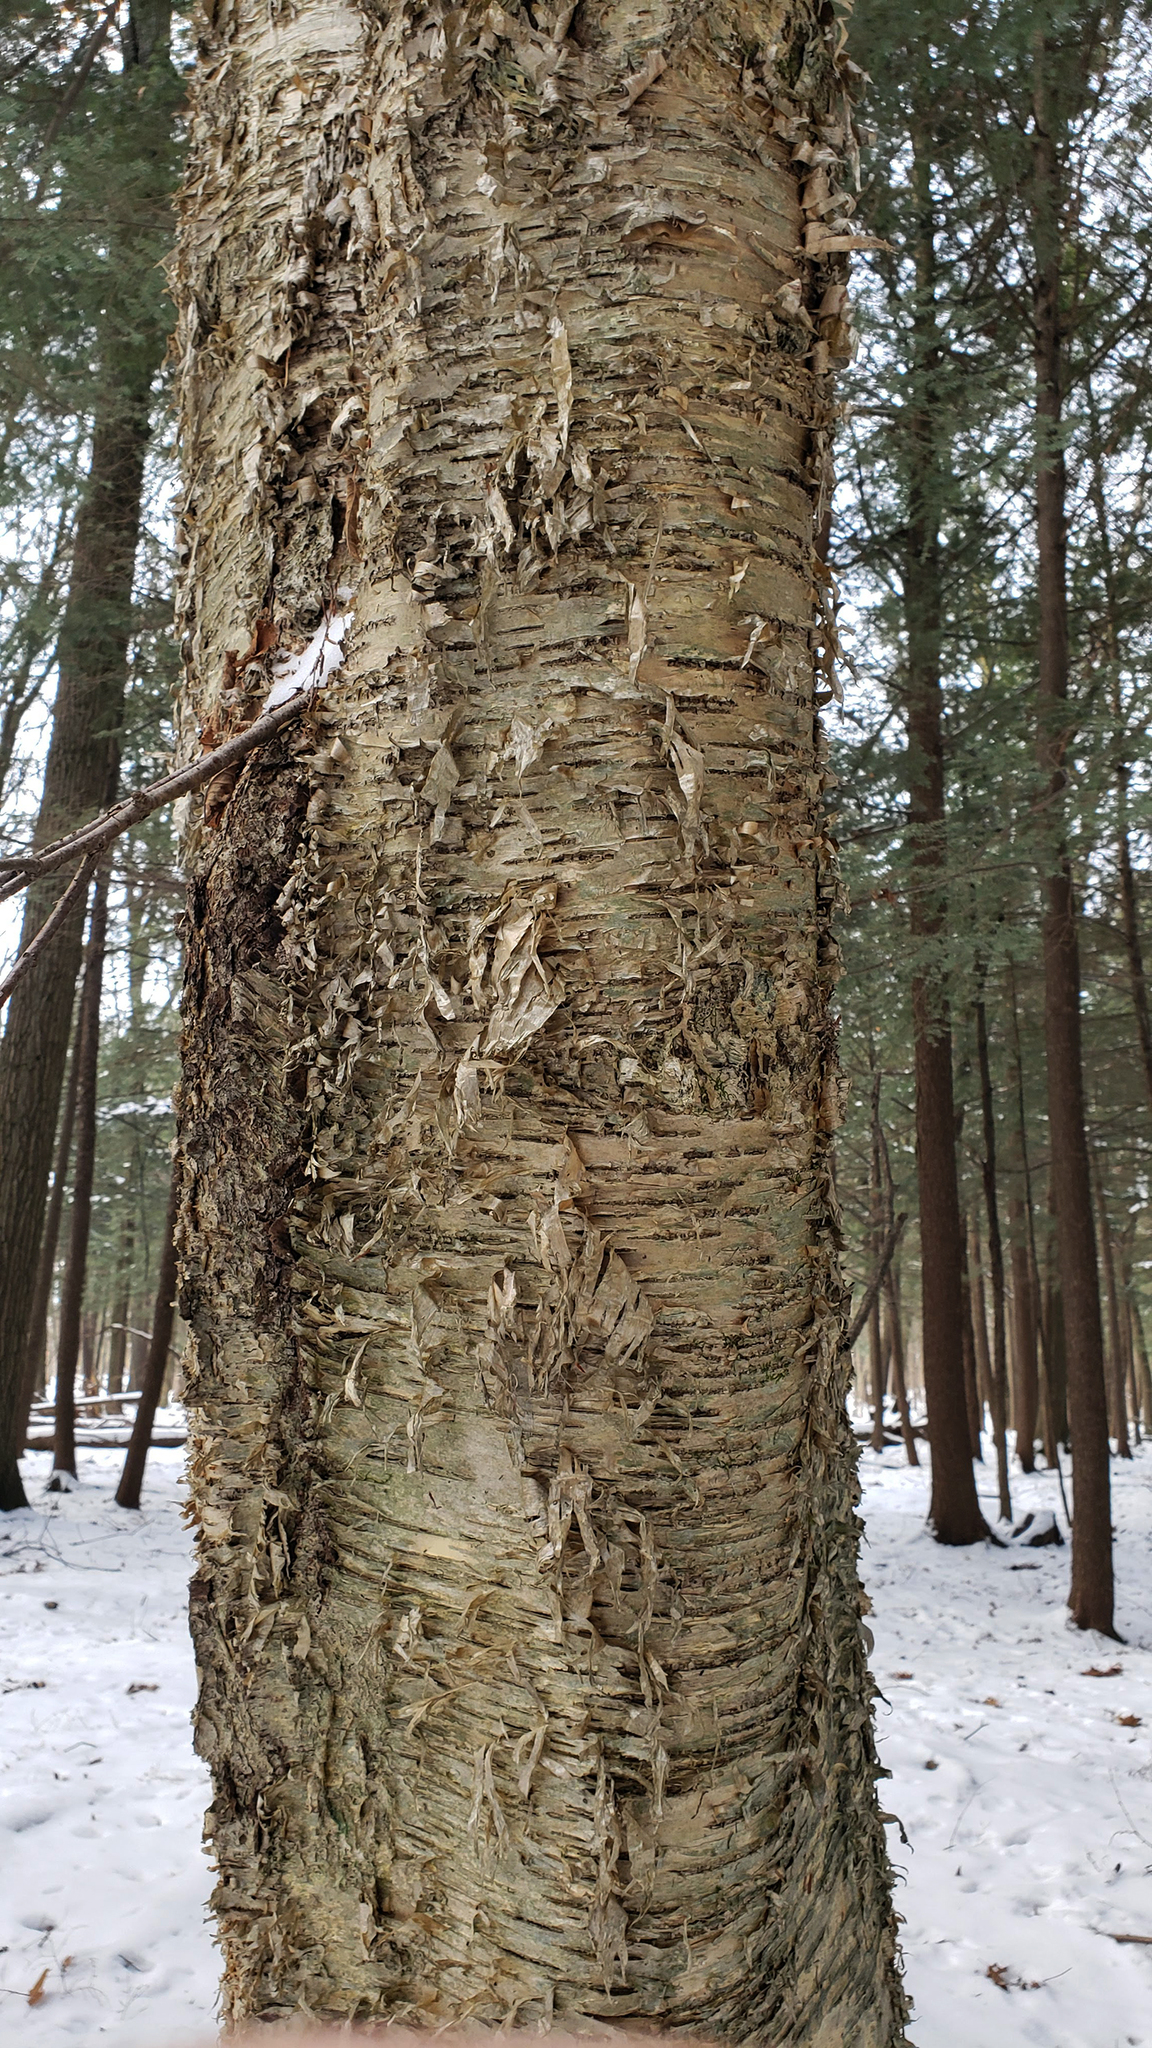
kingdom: Plantae
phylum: Tracheophyta
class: Magnoliopsida
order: Fagales
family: Betulaceae
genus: Betula
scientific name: Betula alleghaniensis
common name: Yellow birch
